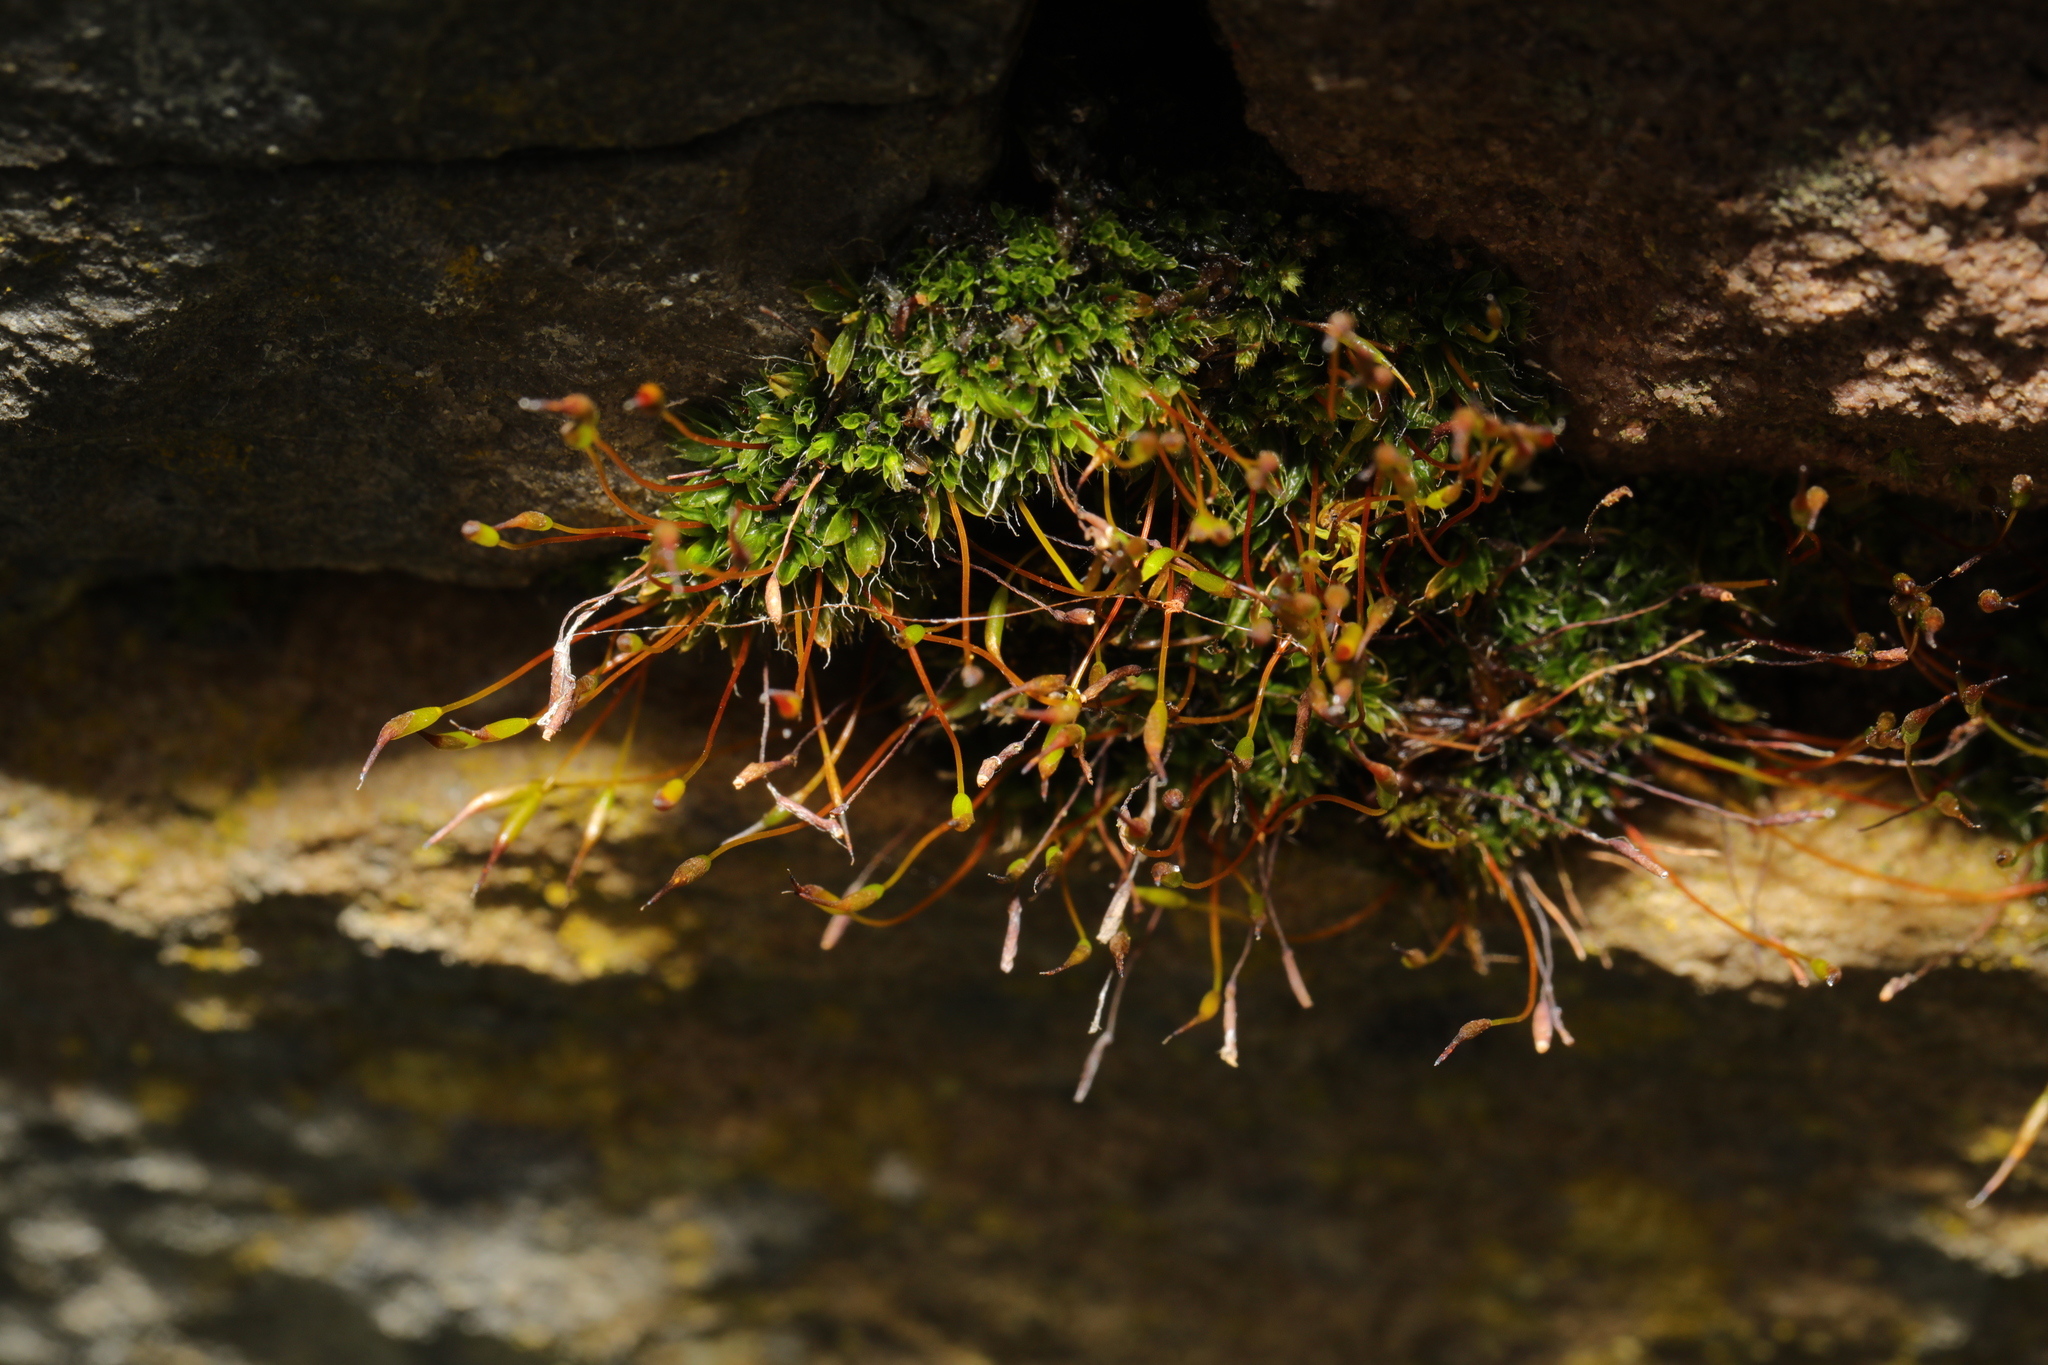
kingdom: Plantae
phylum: Bryophyta
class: Bryopsida
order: Pottiales
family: Pottiaceae
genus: Tortula
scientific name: Tortula muralis
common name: Wall screw-moss
